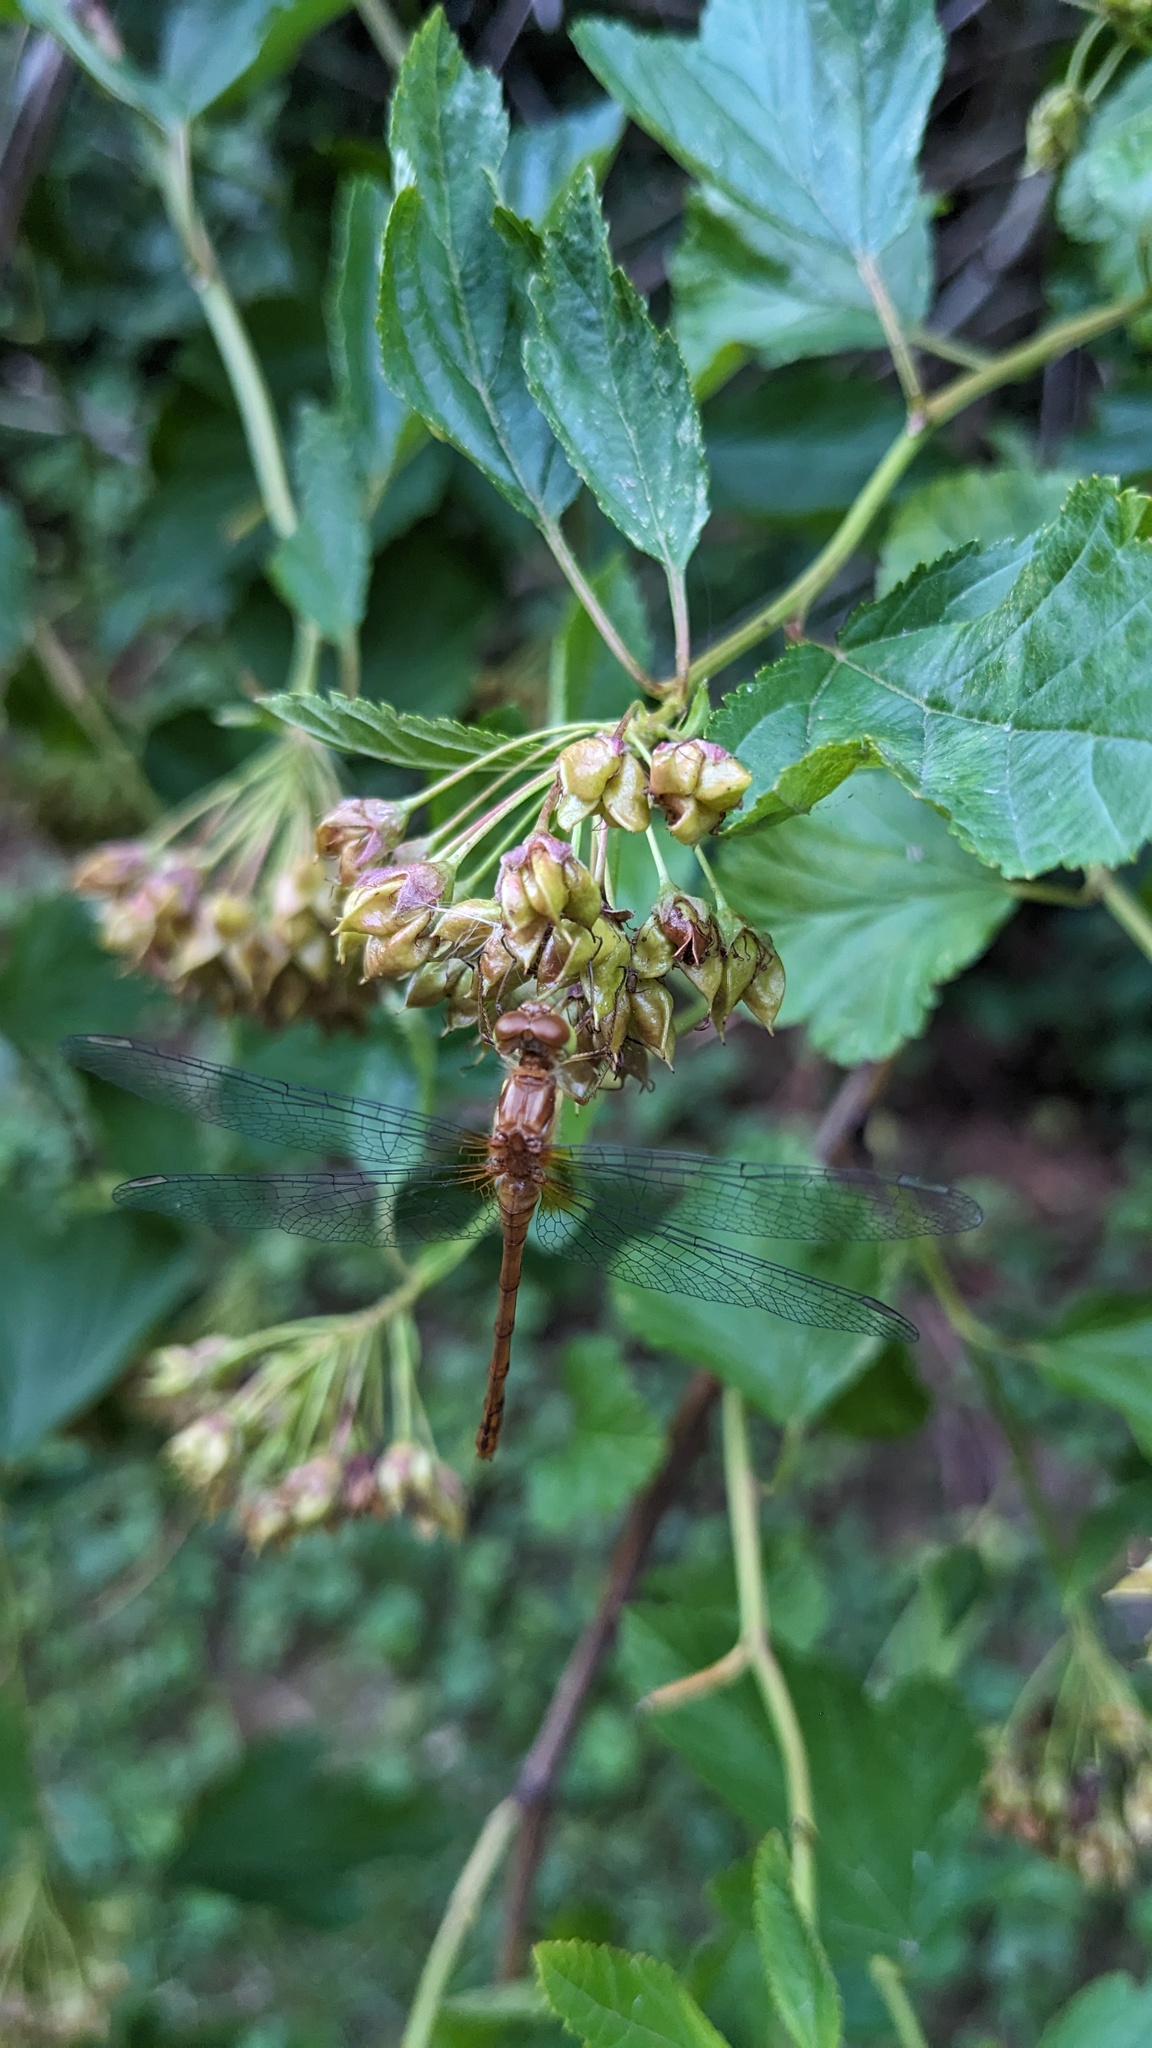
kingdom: Animalia
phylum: Arthropoda
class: Insecta
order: Odonata
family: Libellulidae
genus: Sympetrum
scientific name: Sympetrum vicinum
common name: Autumn meadowhawk
